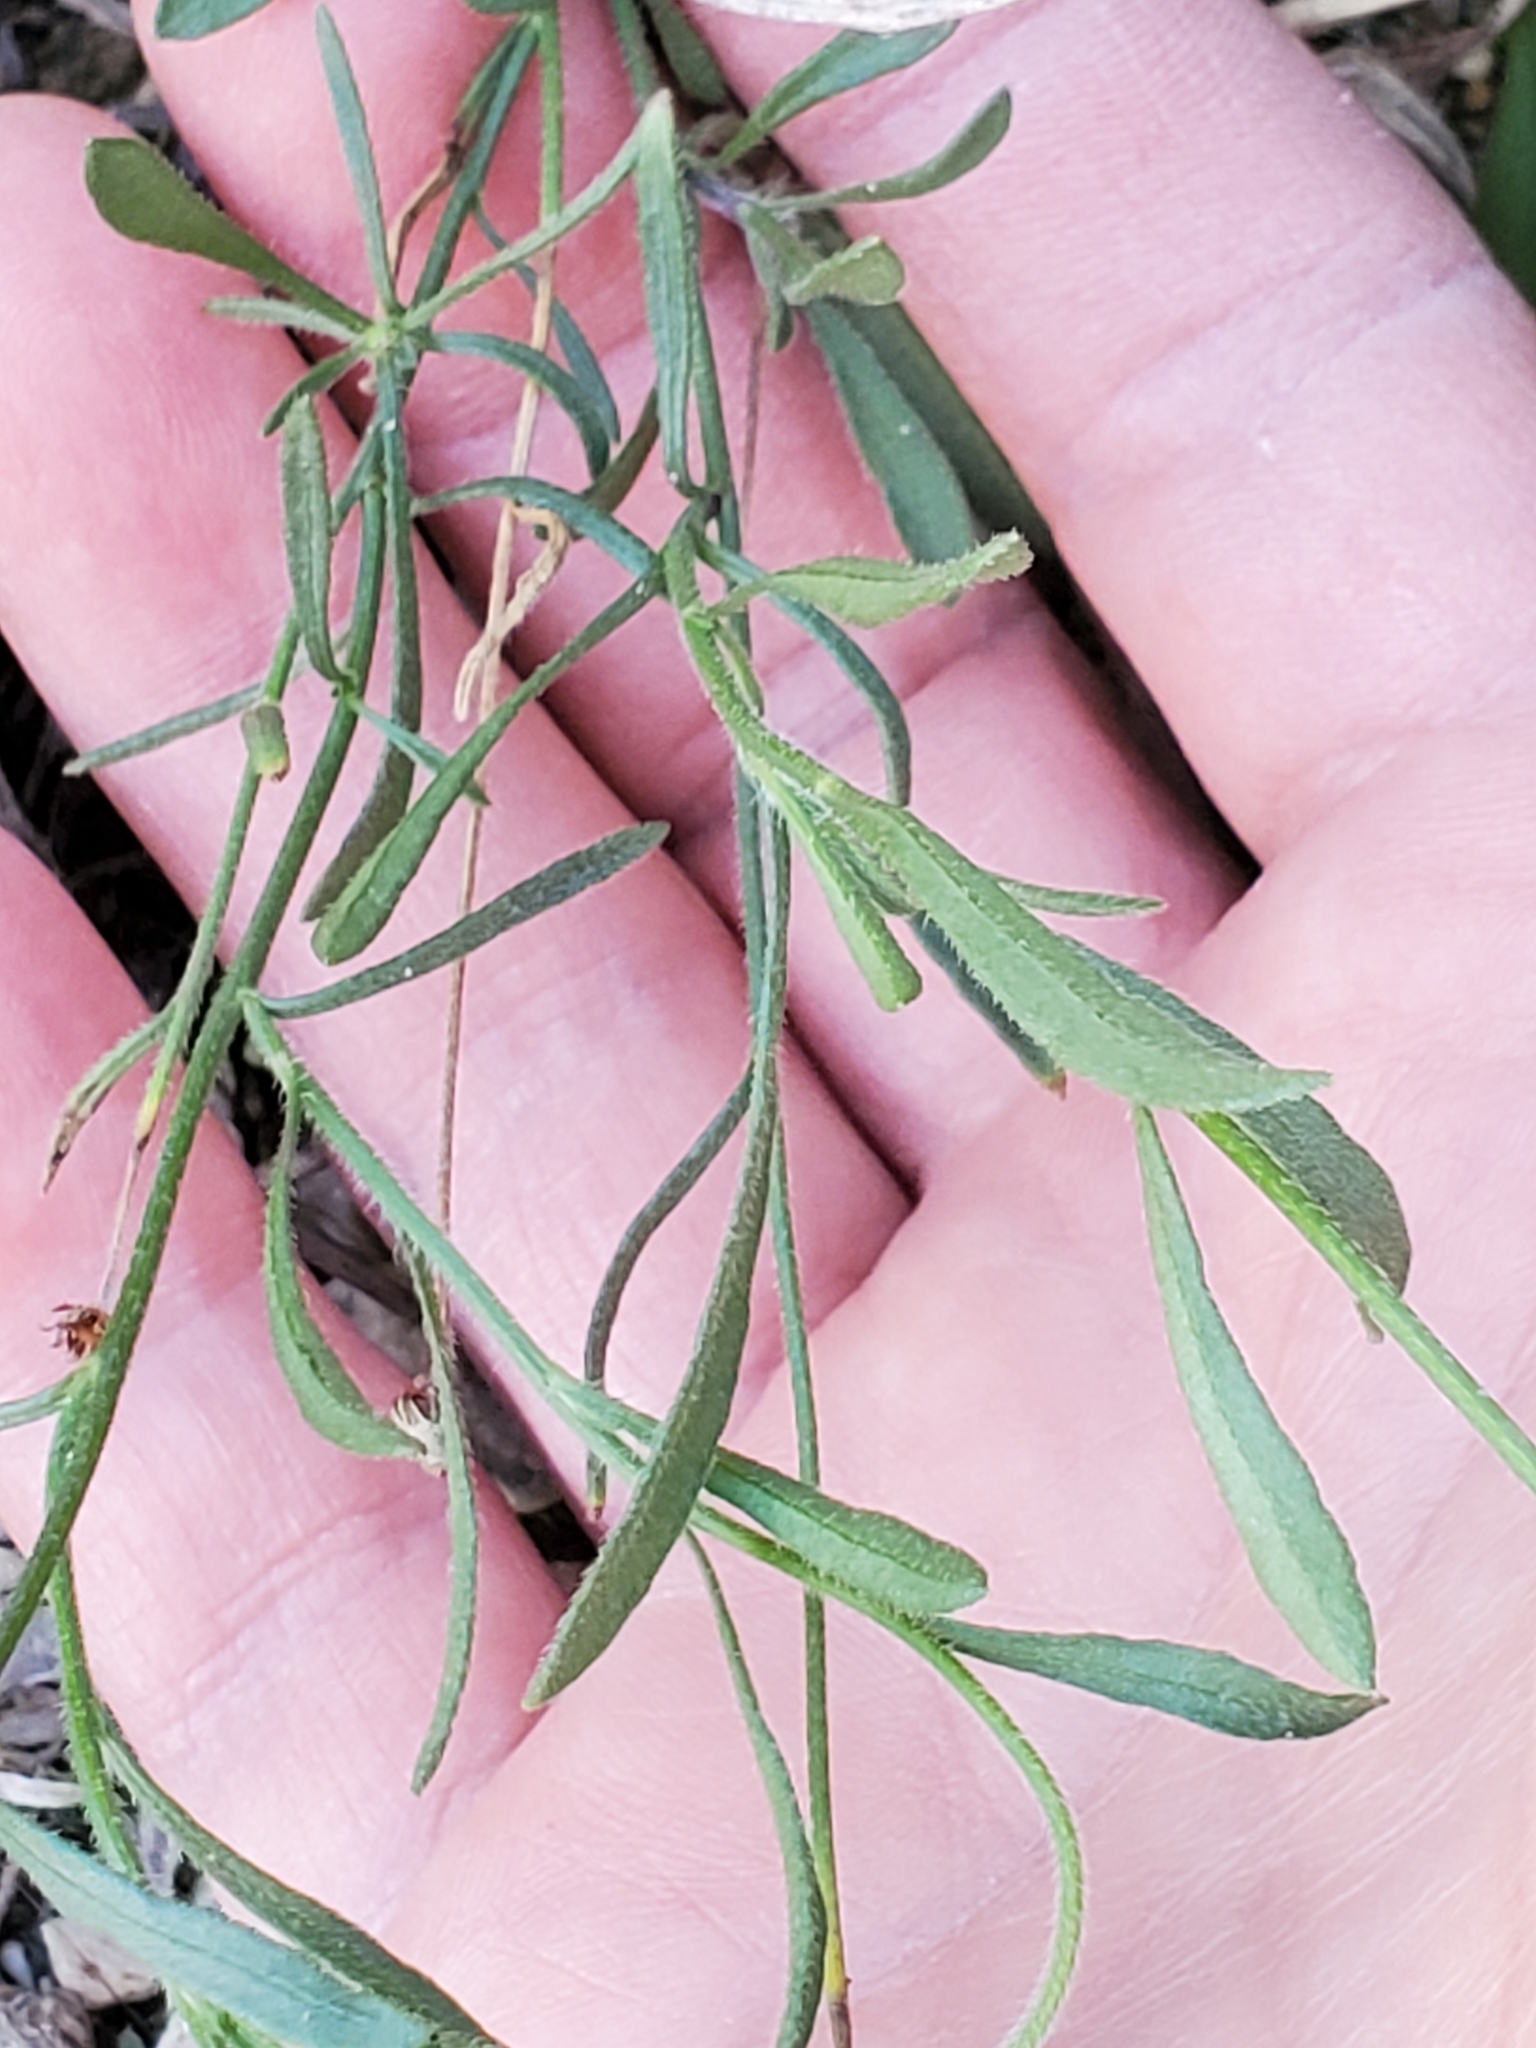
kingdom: Plantae
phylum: Tracheophyta
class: Magnoliopsida
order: Asterales
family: Asteraceae
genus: Erigeron
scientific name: Erigeron modestus
